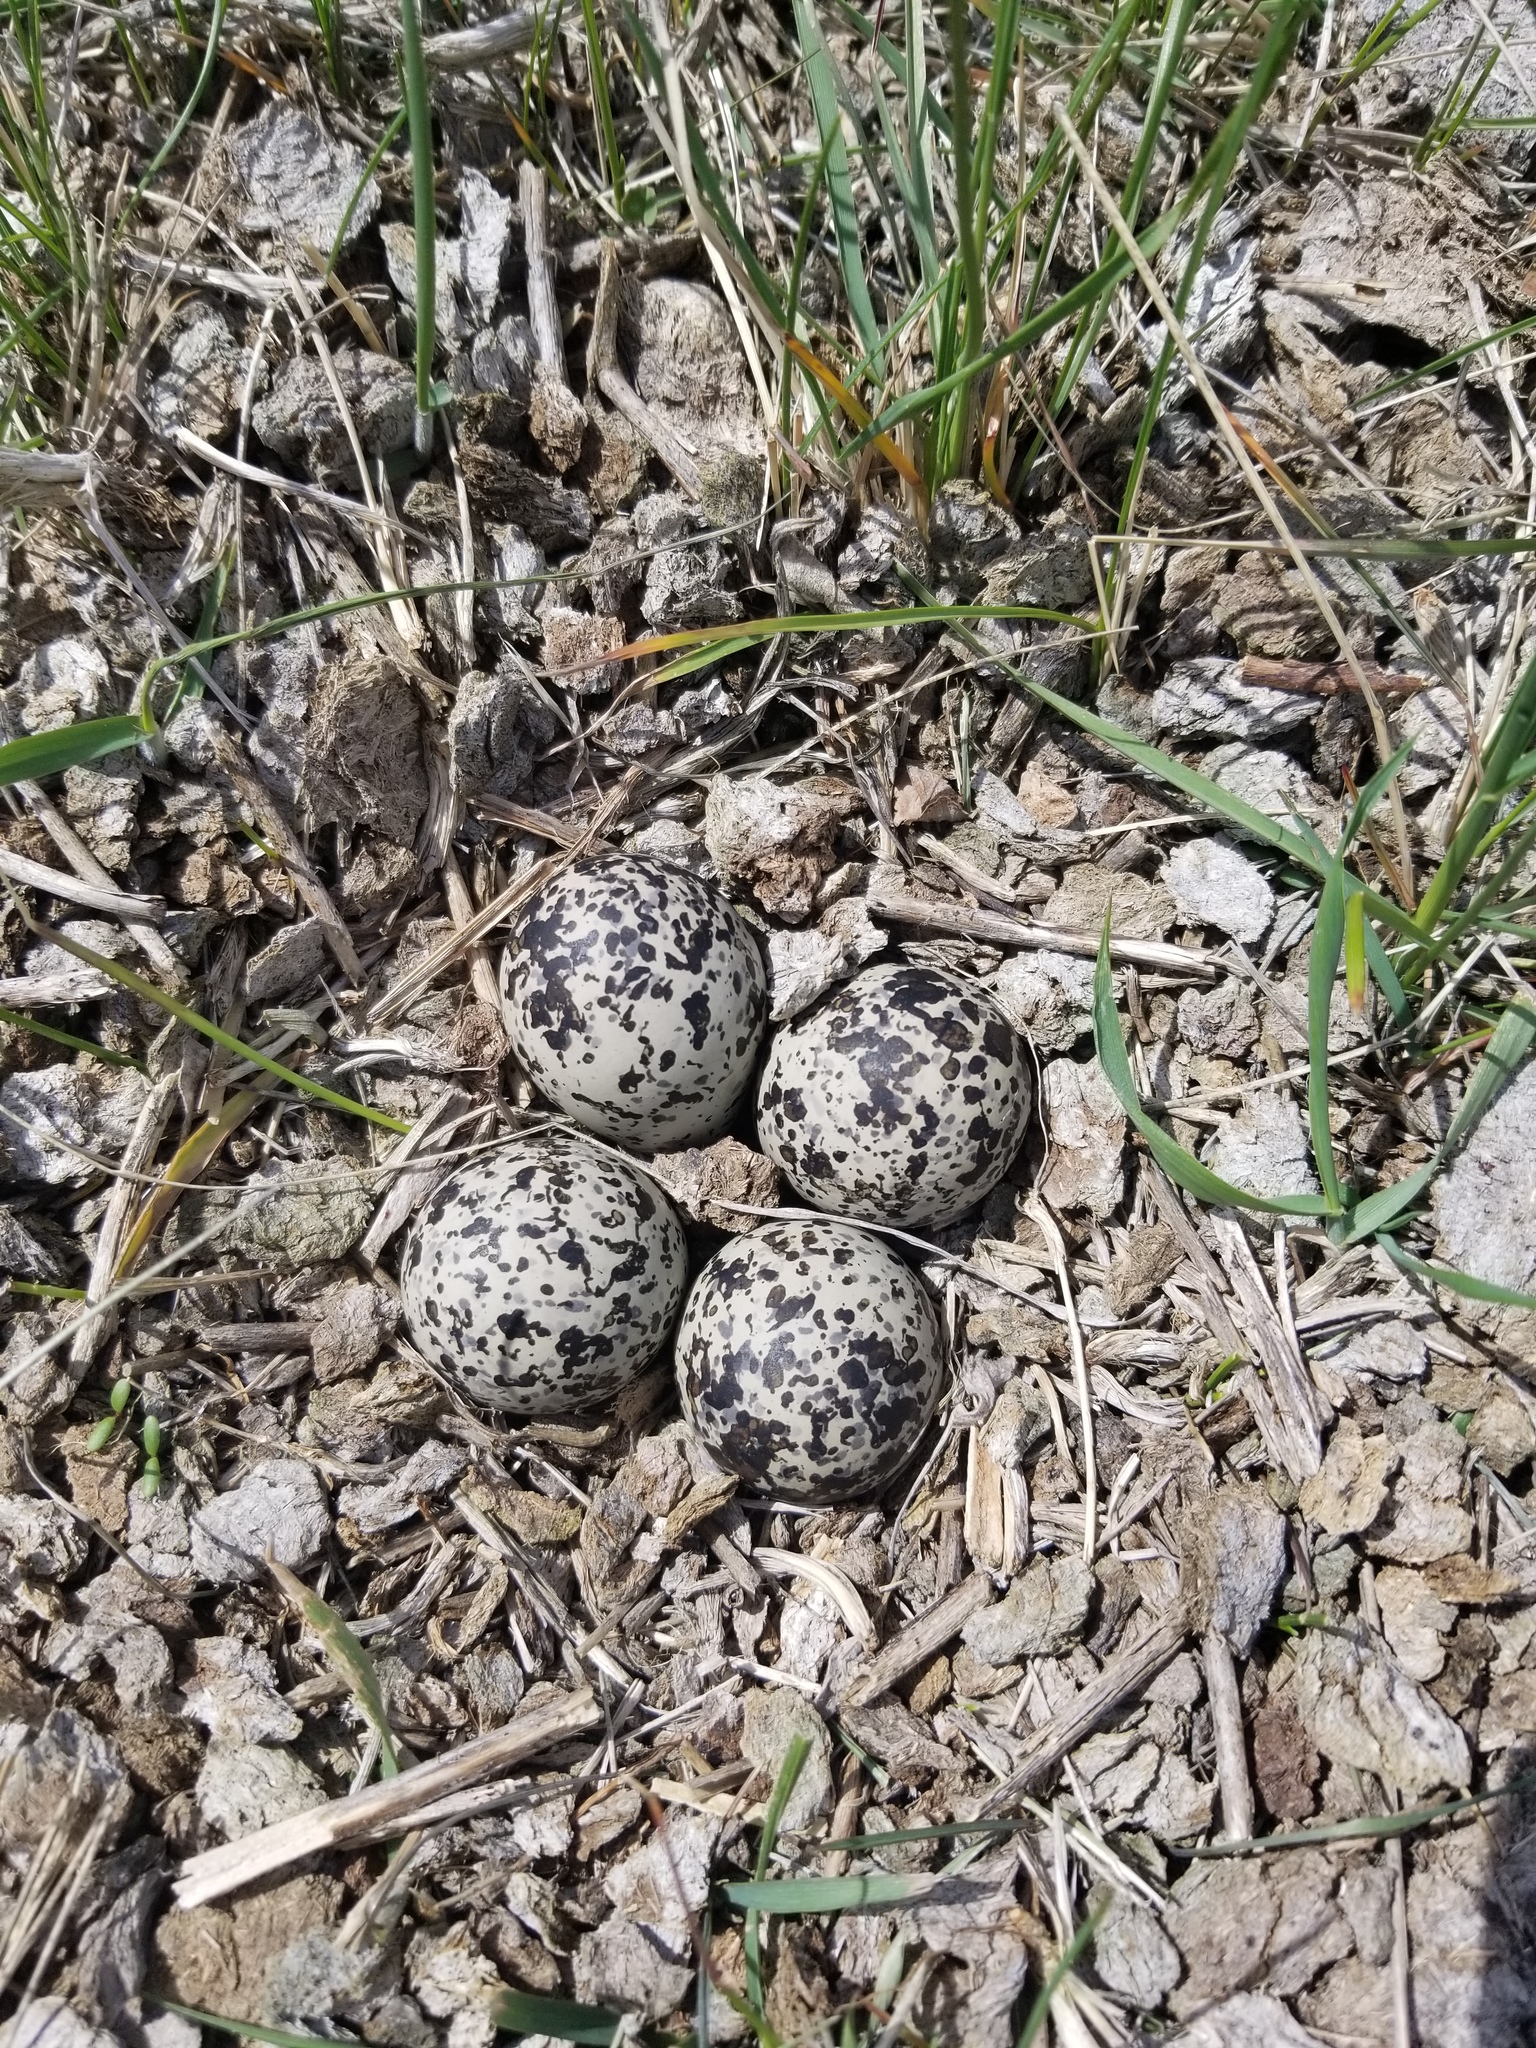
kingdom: Animalia
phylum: Chordata
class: Aves
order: Charadriiformes
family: Charadriidae
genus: Charadrius
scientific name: Charadrius vociferus
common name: Killdeer
